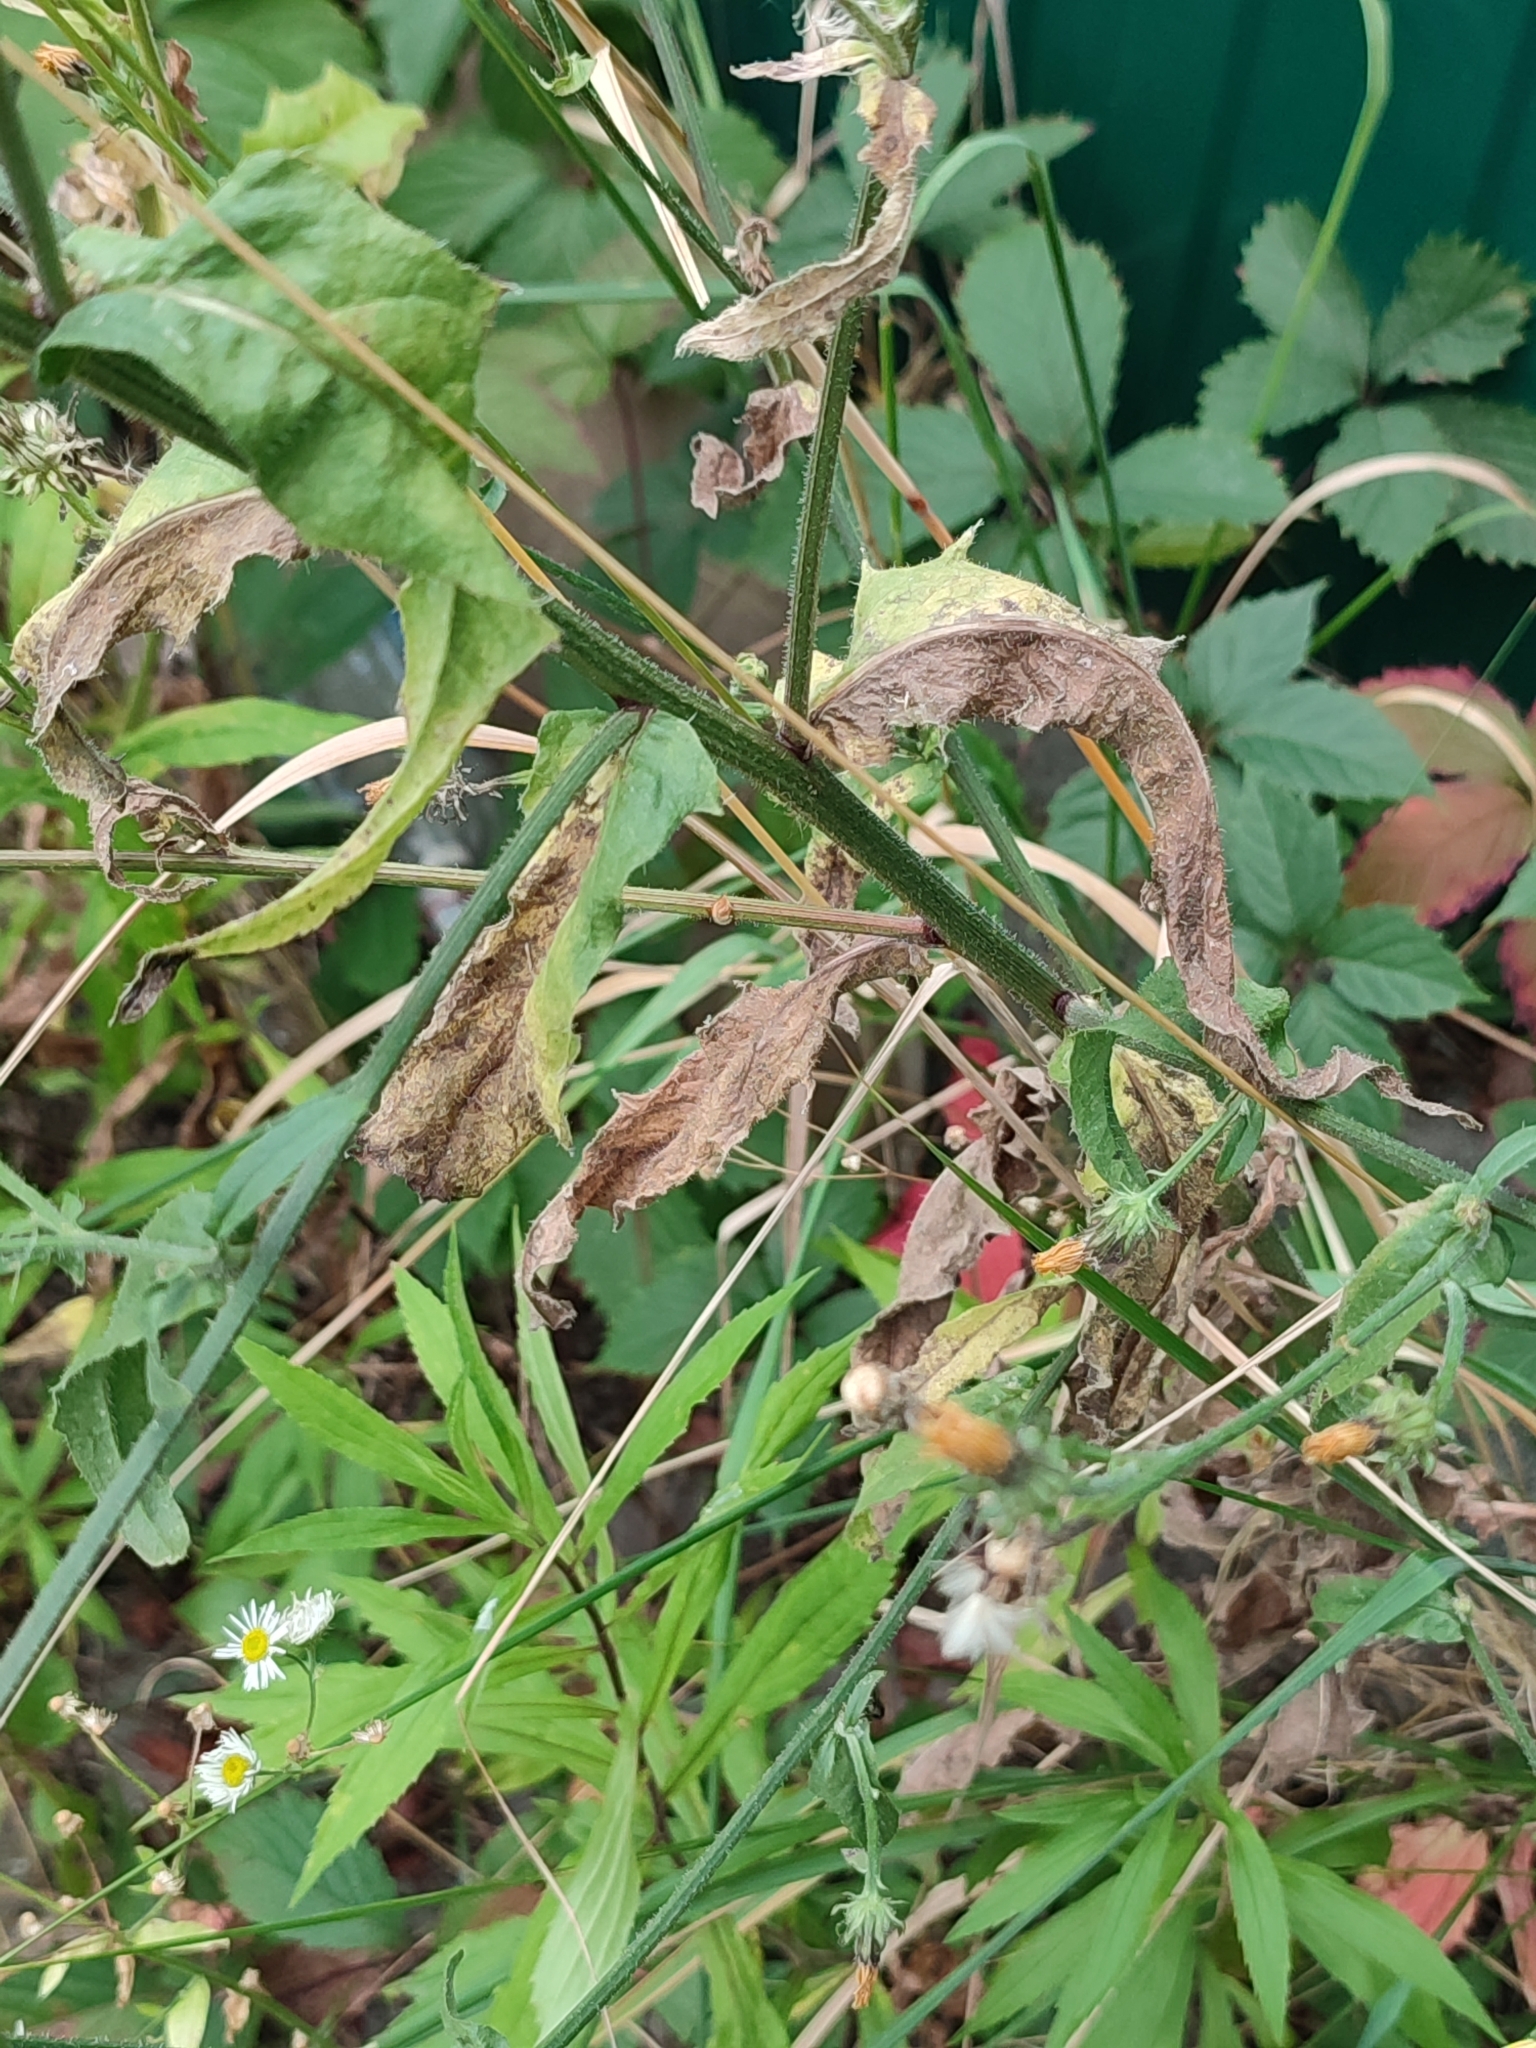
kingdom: Plantae
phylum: Tracheophyta
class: Magnoliopsida
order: Asterales
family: Asteraceae
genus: Picris
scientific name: Picris hieracioides
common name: Hawkweed oxtongue
